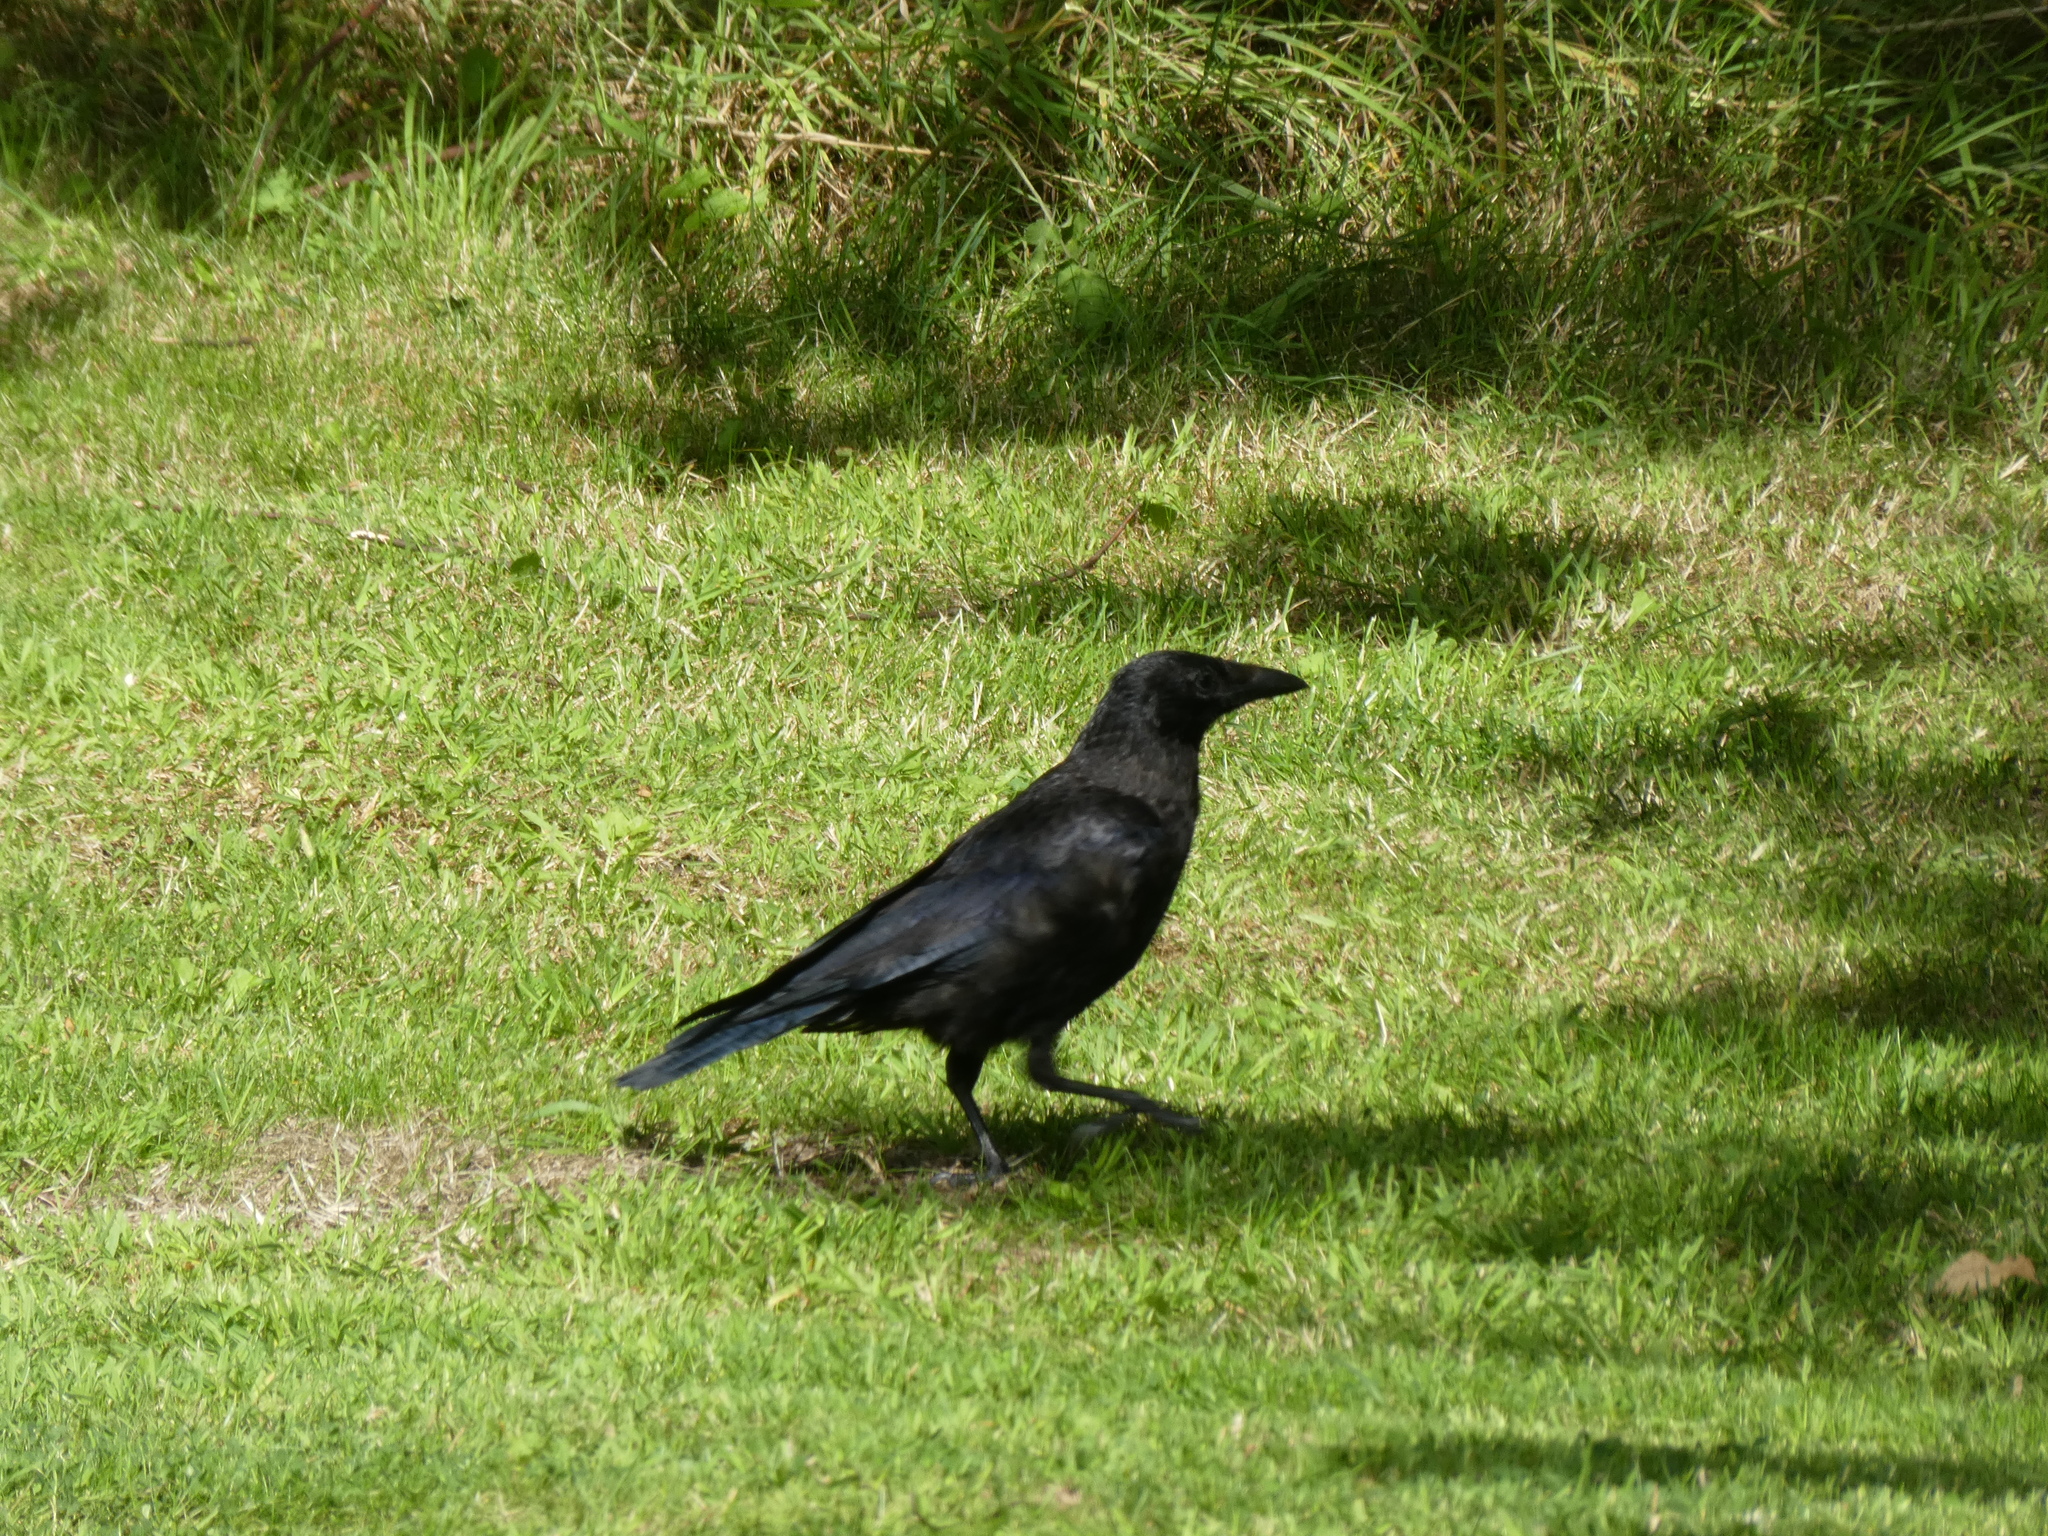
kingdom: Animalia
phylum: Chordata
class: Aves
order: Passeriformes
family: Corvidae
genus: Corvus
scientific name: Corvus corone
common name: Carrion crow
